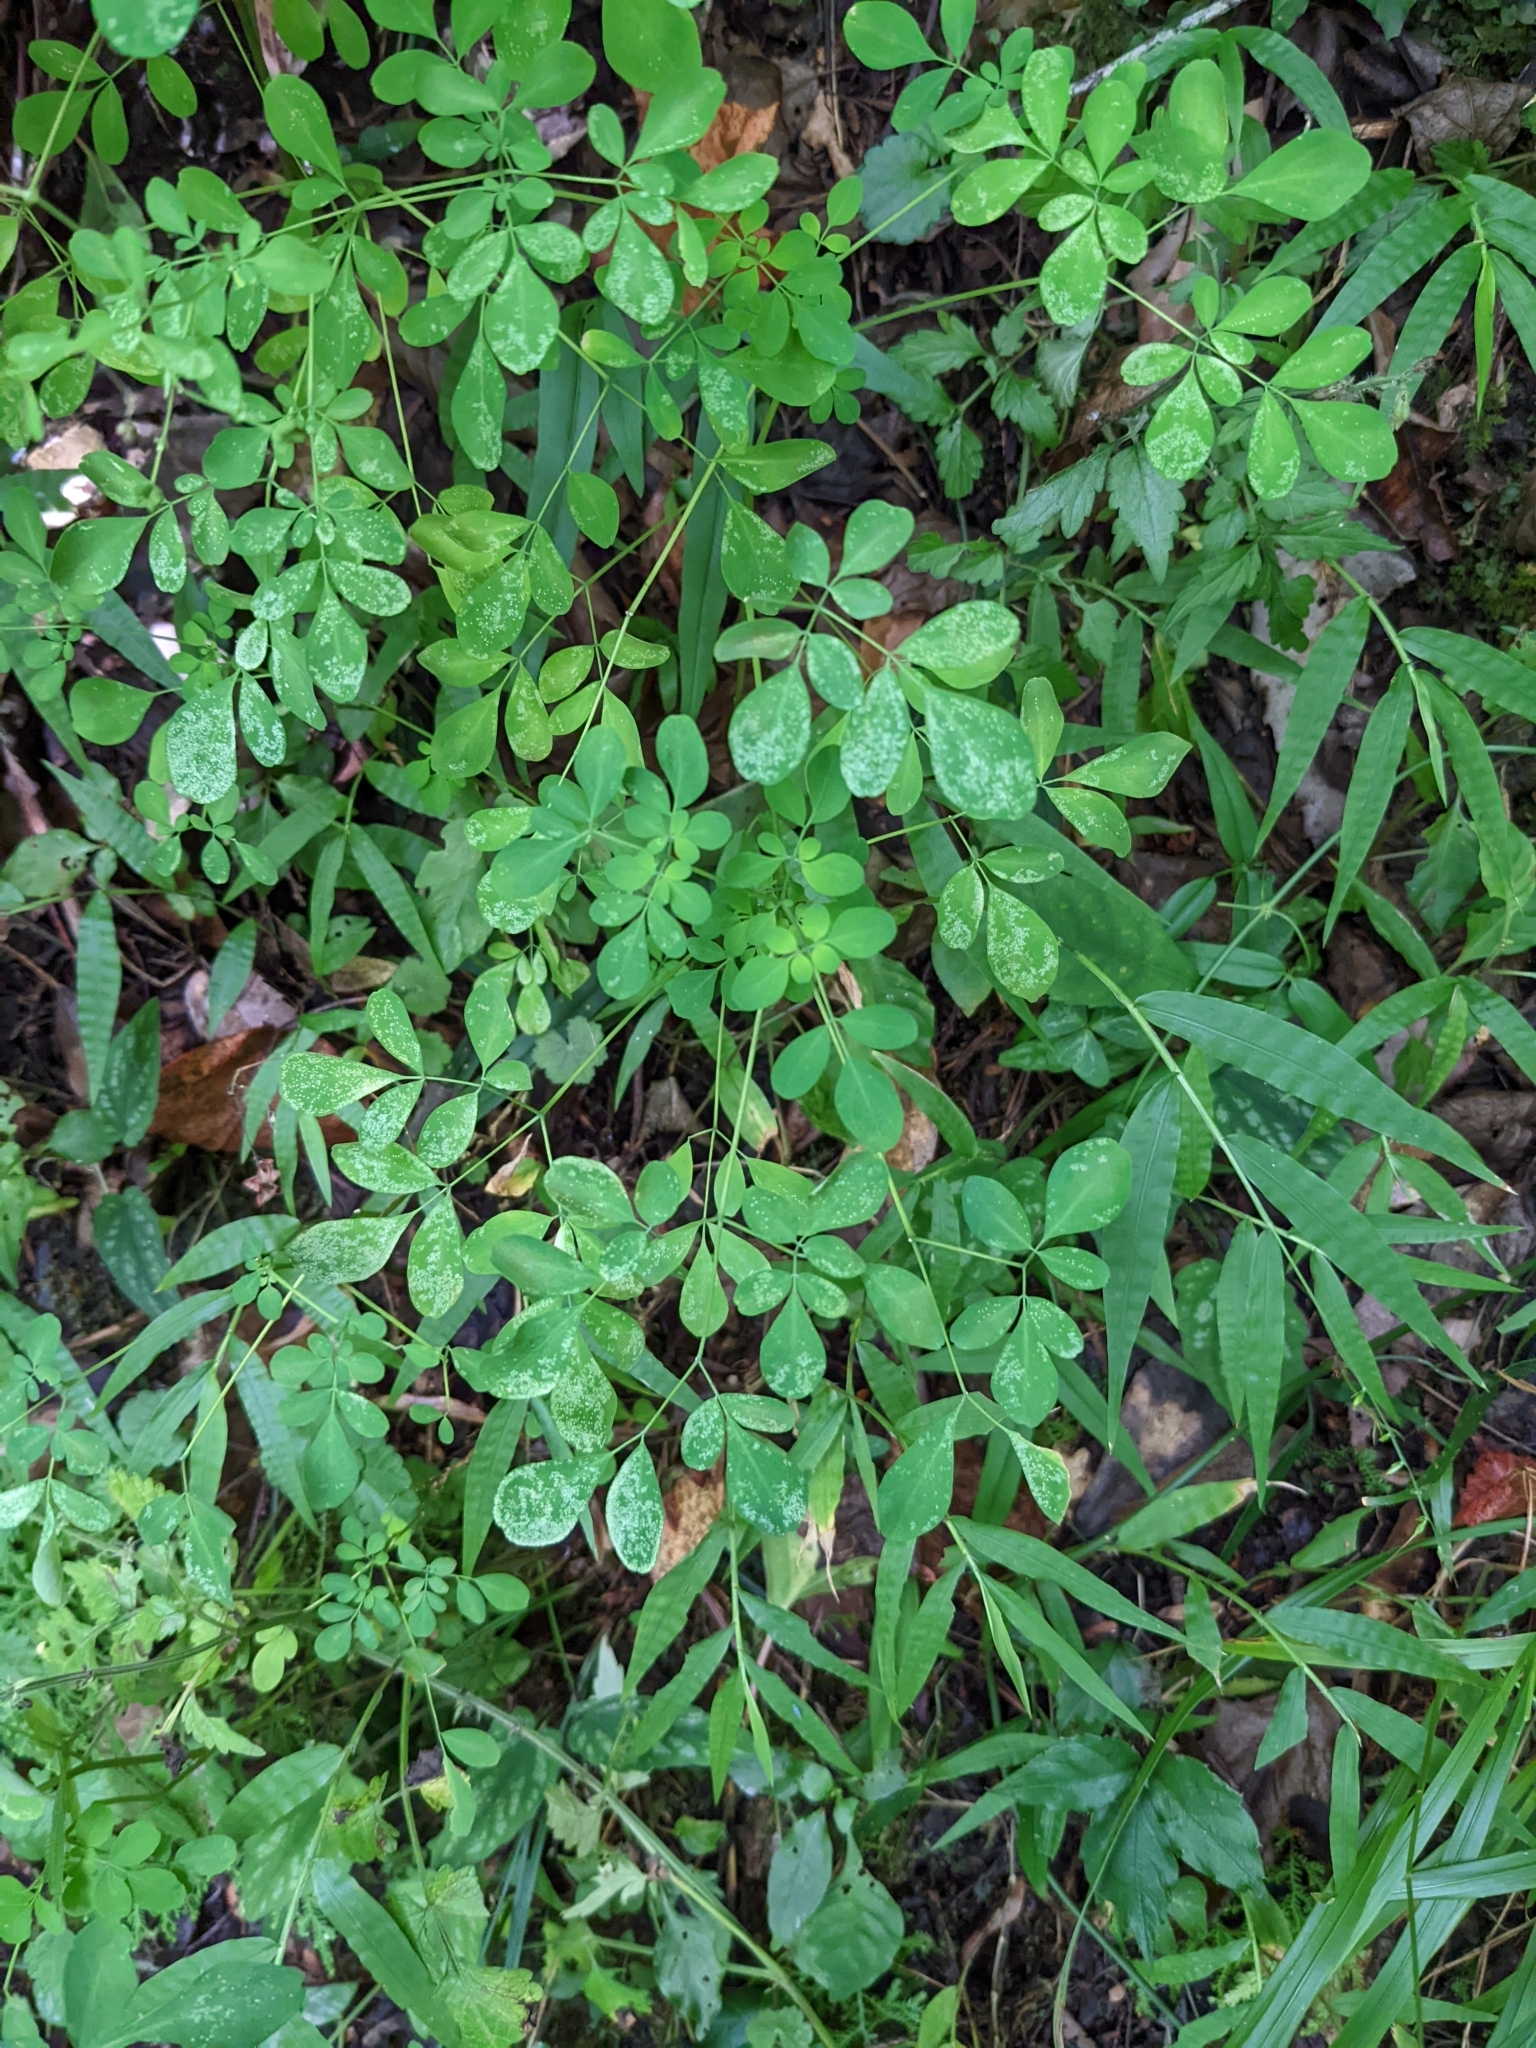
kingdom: Plantae
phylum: Tracheophyta
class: Magnoliopsida
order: Sapindales
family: Rutaceae
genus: Boenninghausenia
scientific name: Boenninghausenia albiflora
